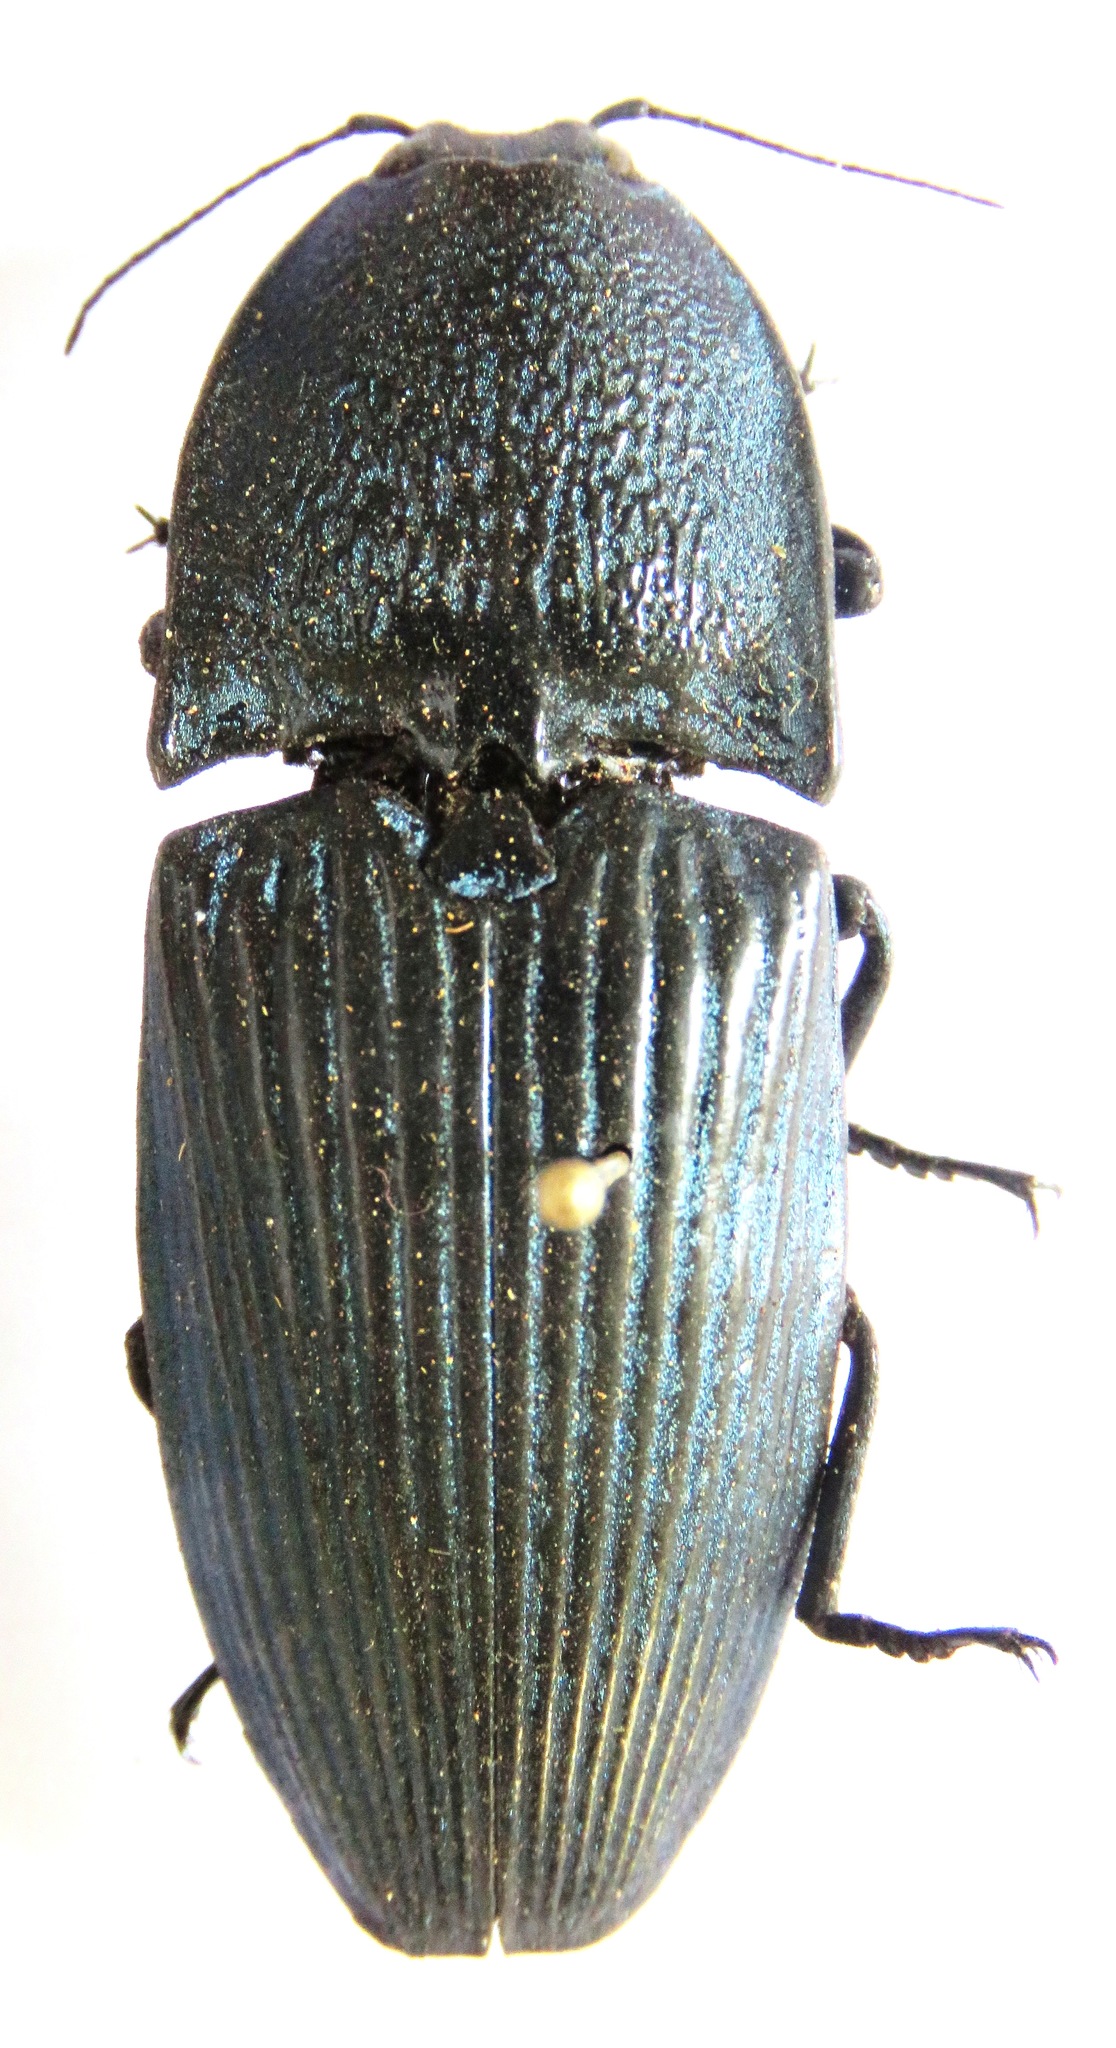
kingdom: Animalia
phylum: Arthropoda
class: Insecta
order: Coleoptera
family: Elateridae
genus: Chalcolepidius
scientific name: Chalcolepidius lacordairei
